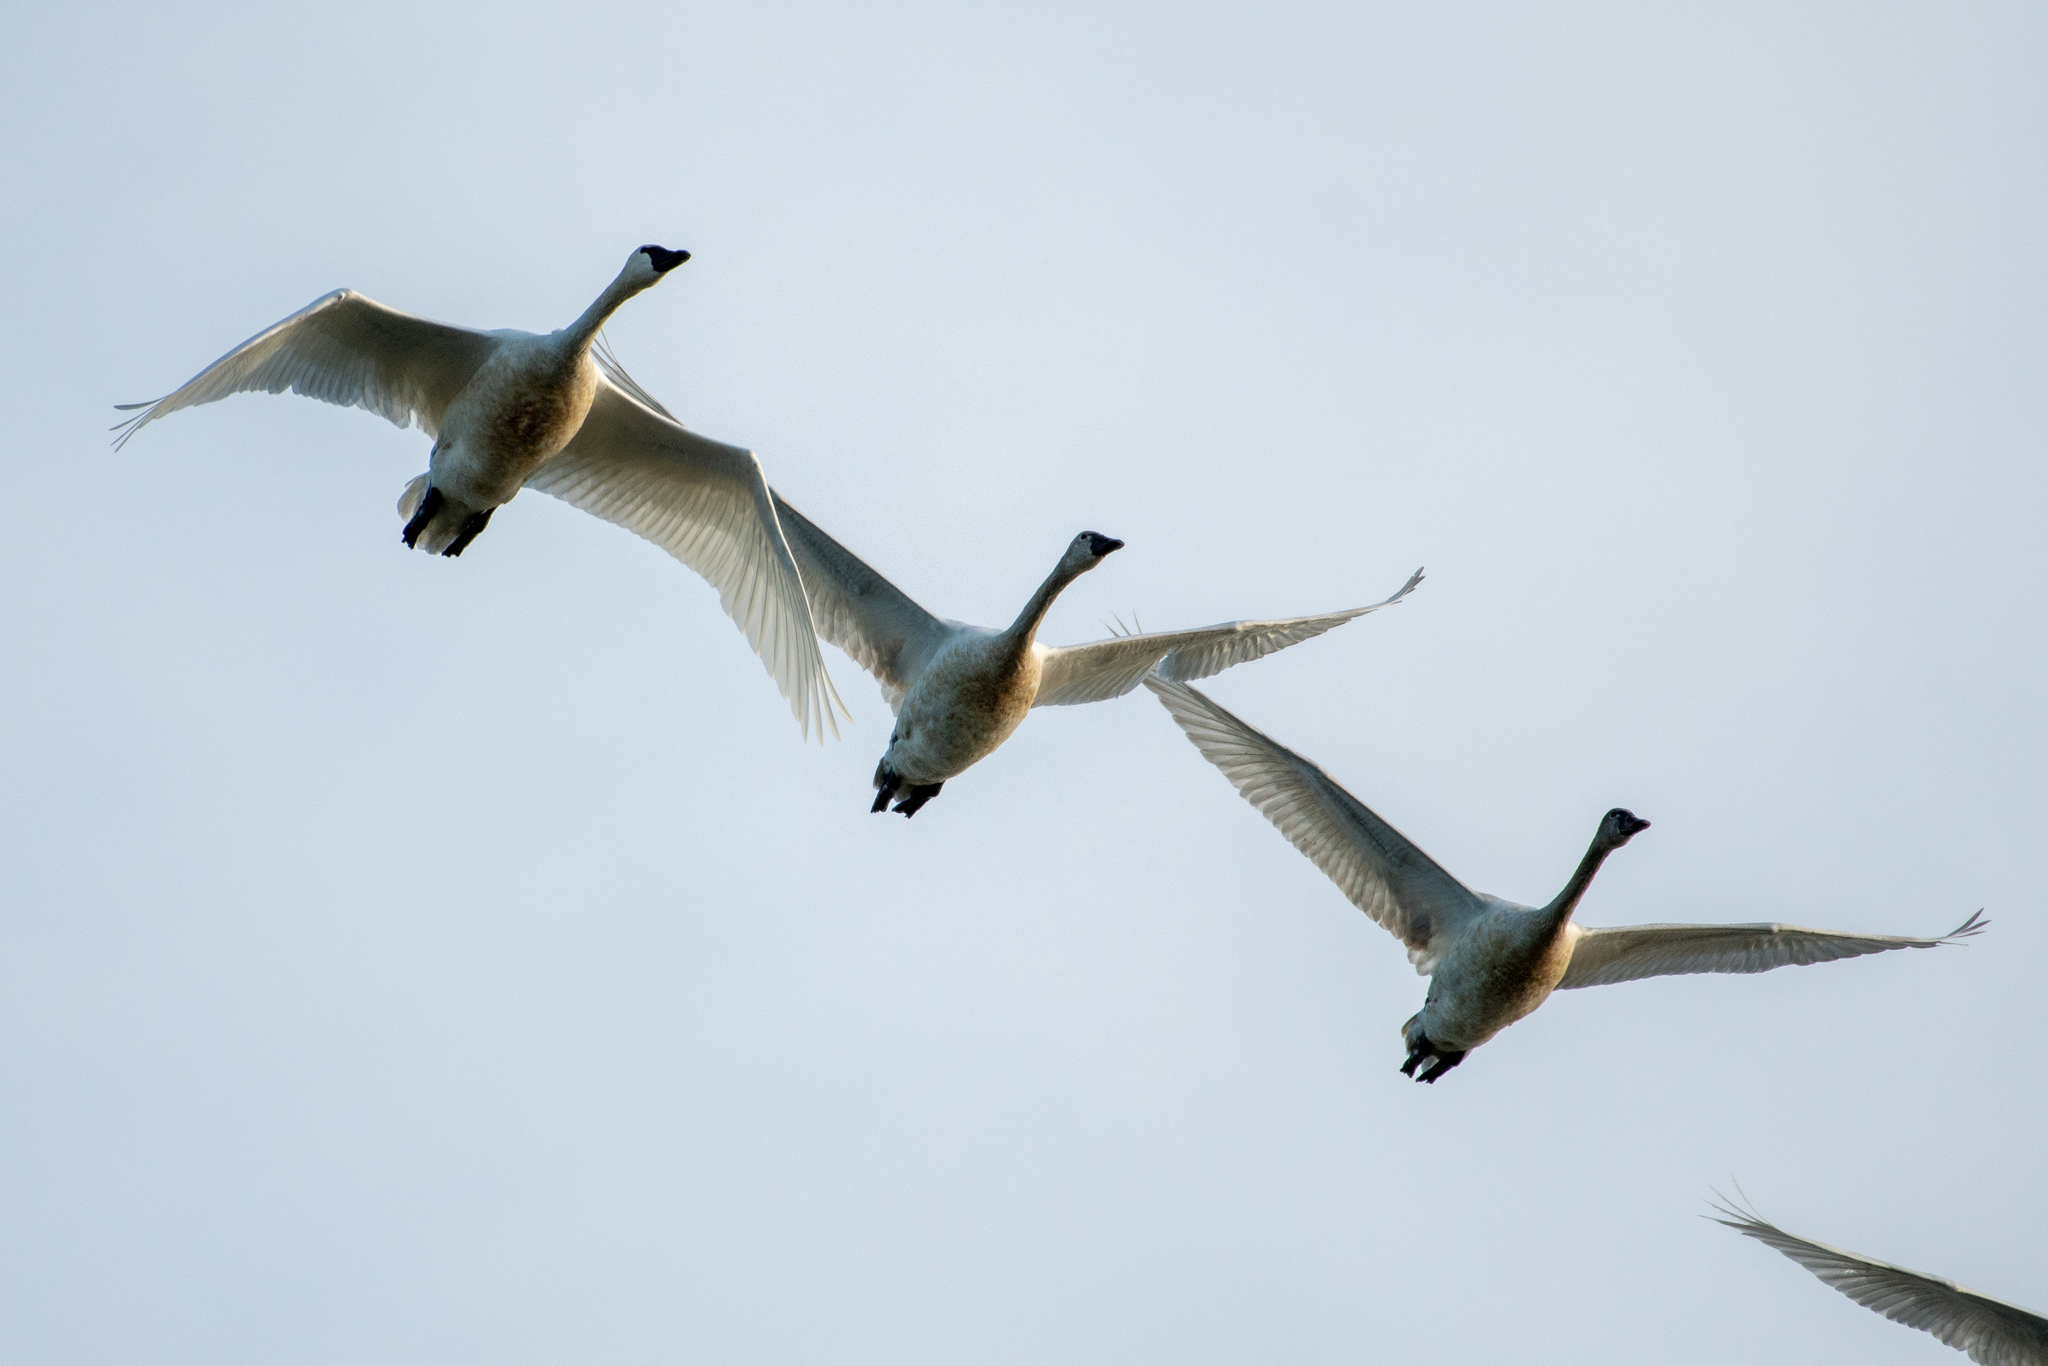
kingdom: Animalia
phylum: Chordata
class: Aves
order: Anseriformes
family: Anatidae
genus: Cygnus
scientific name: Cygnus columbianus
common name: Tundra swan
